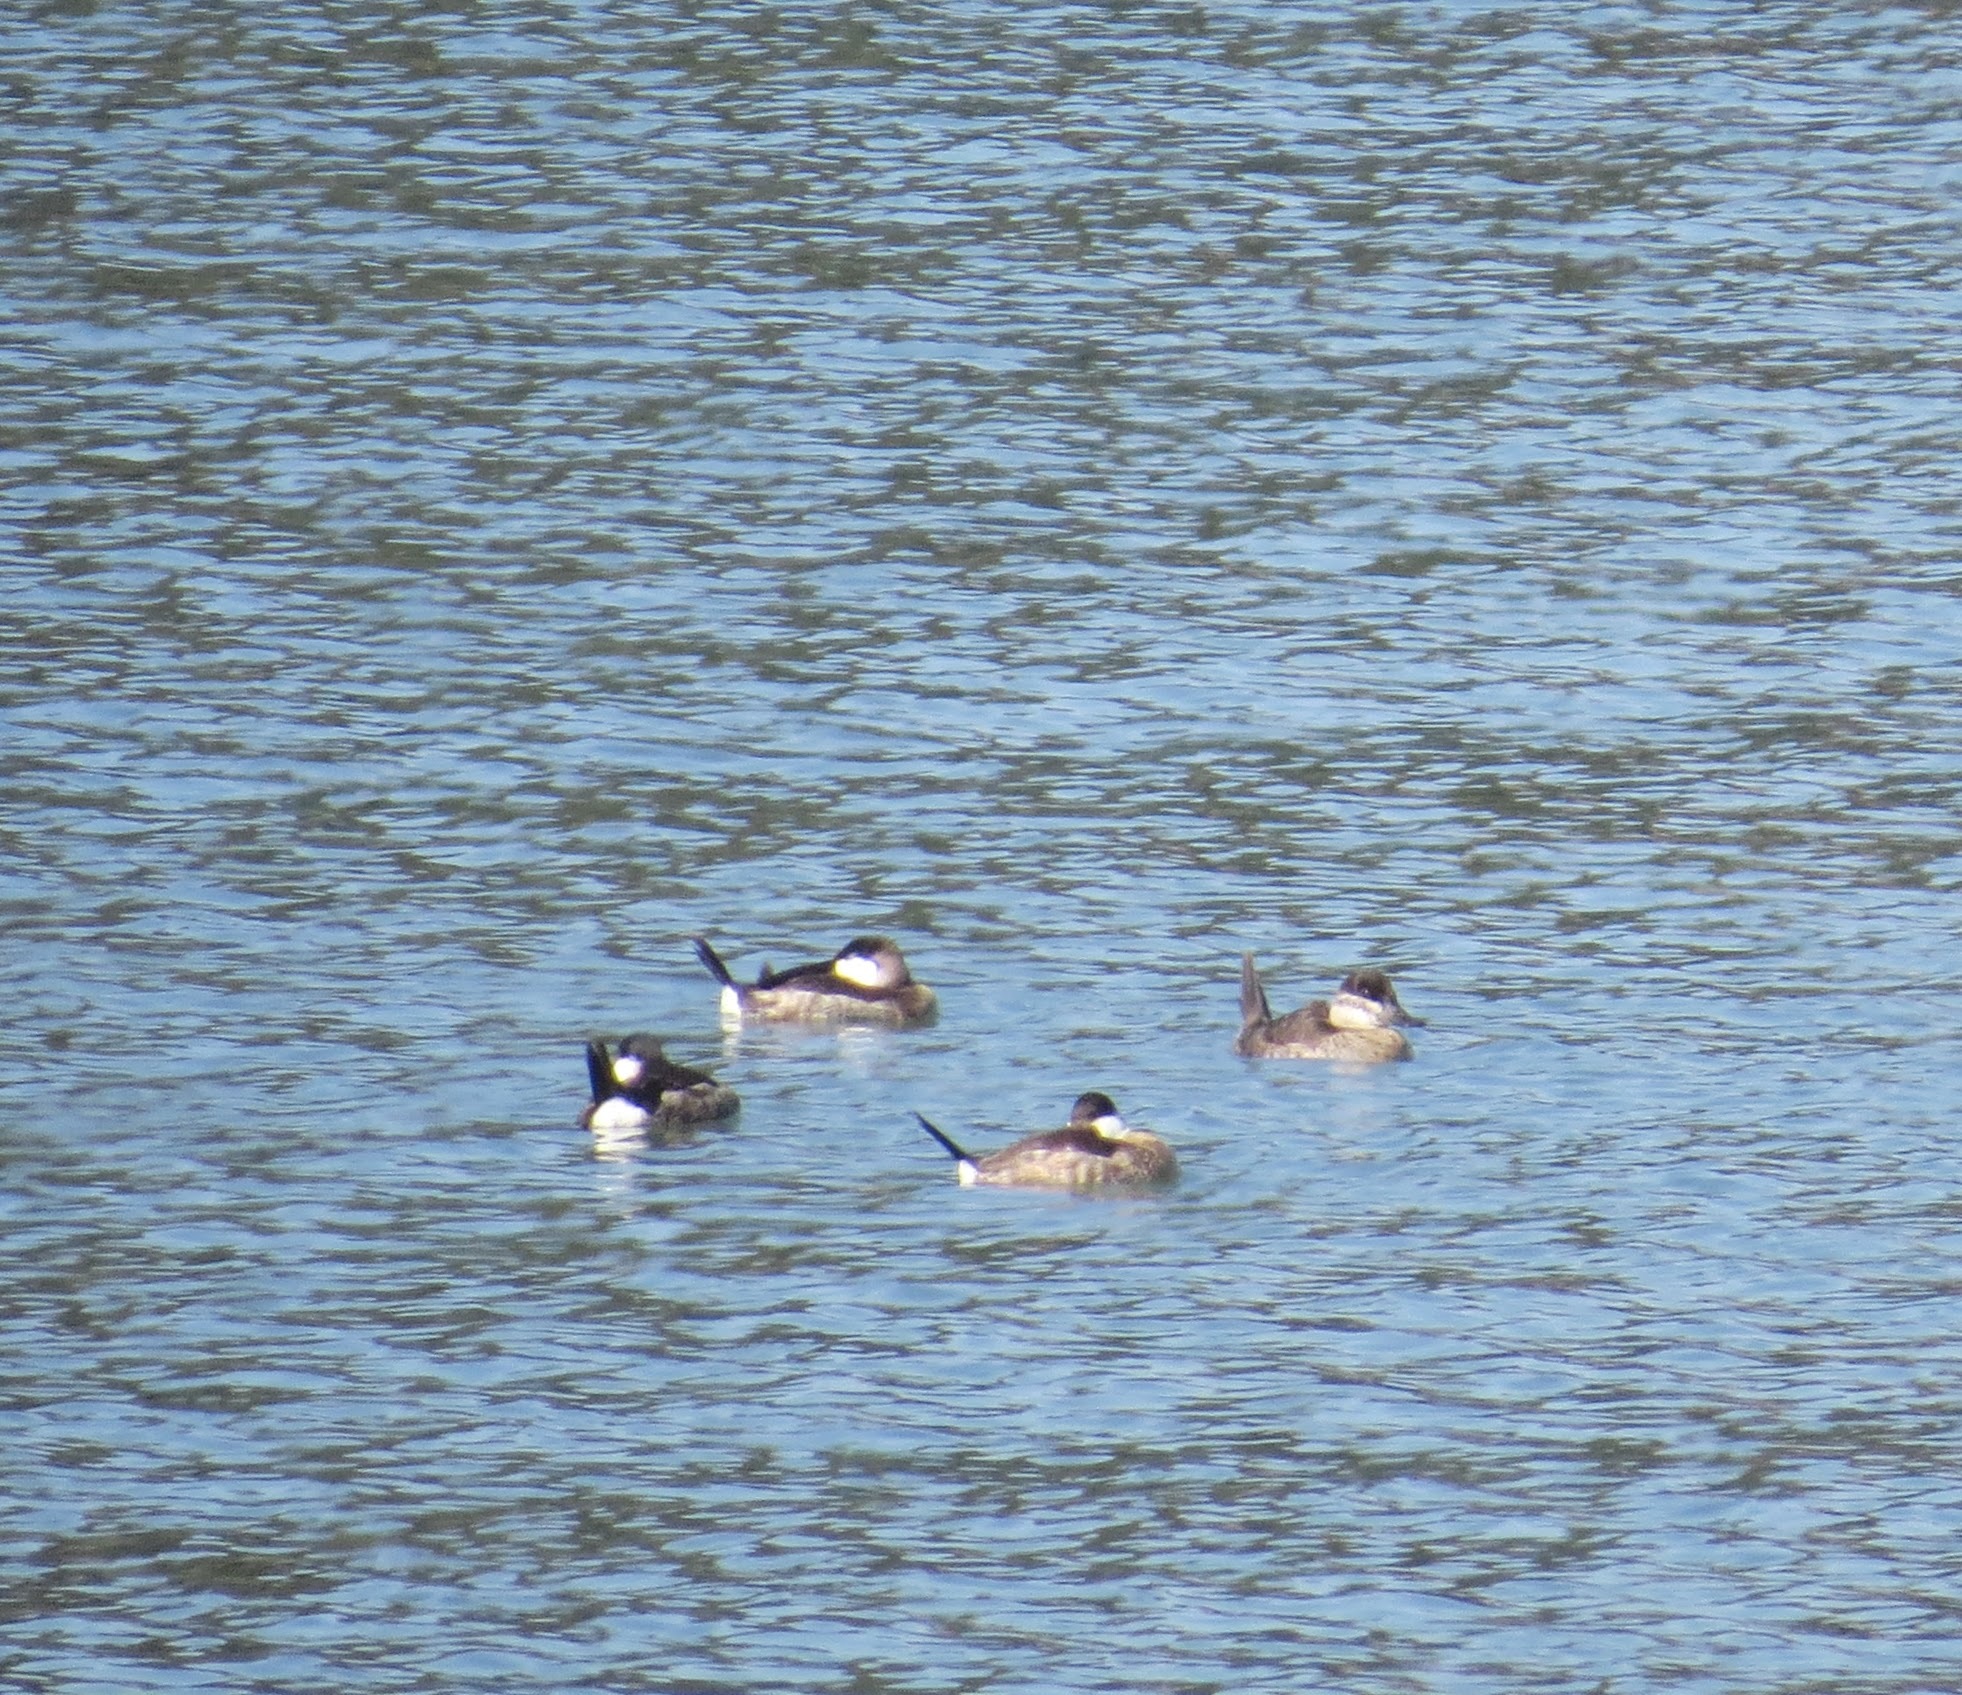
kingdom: Animalia
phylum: Chordata
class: Aves
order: Anseriformes
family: Anatidae
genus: Oxyura
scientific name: Oxyura jamaicensis
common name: Ruddy duck
